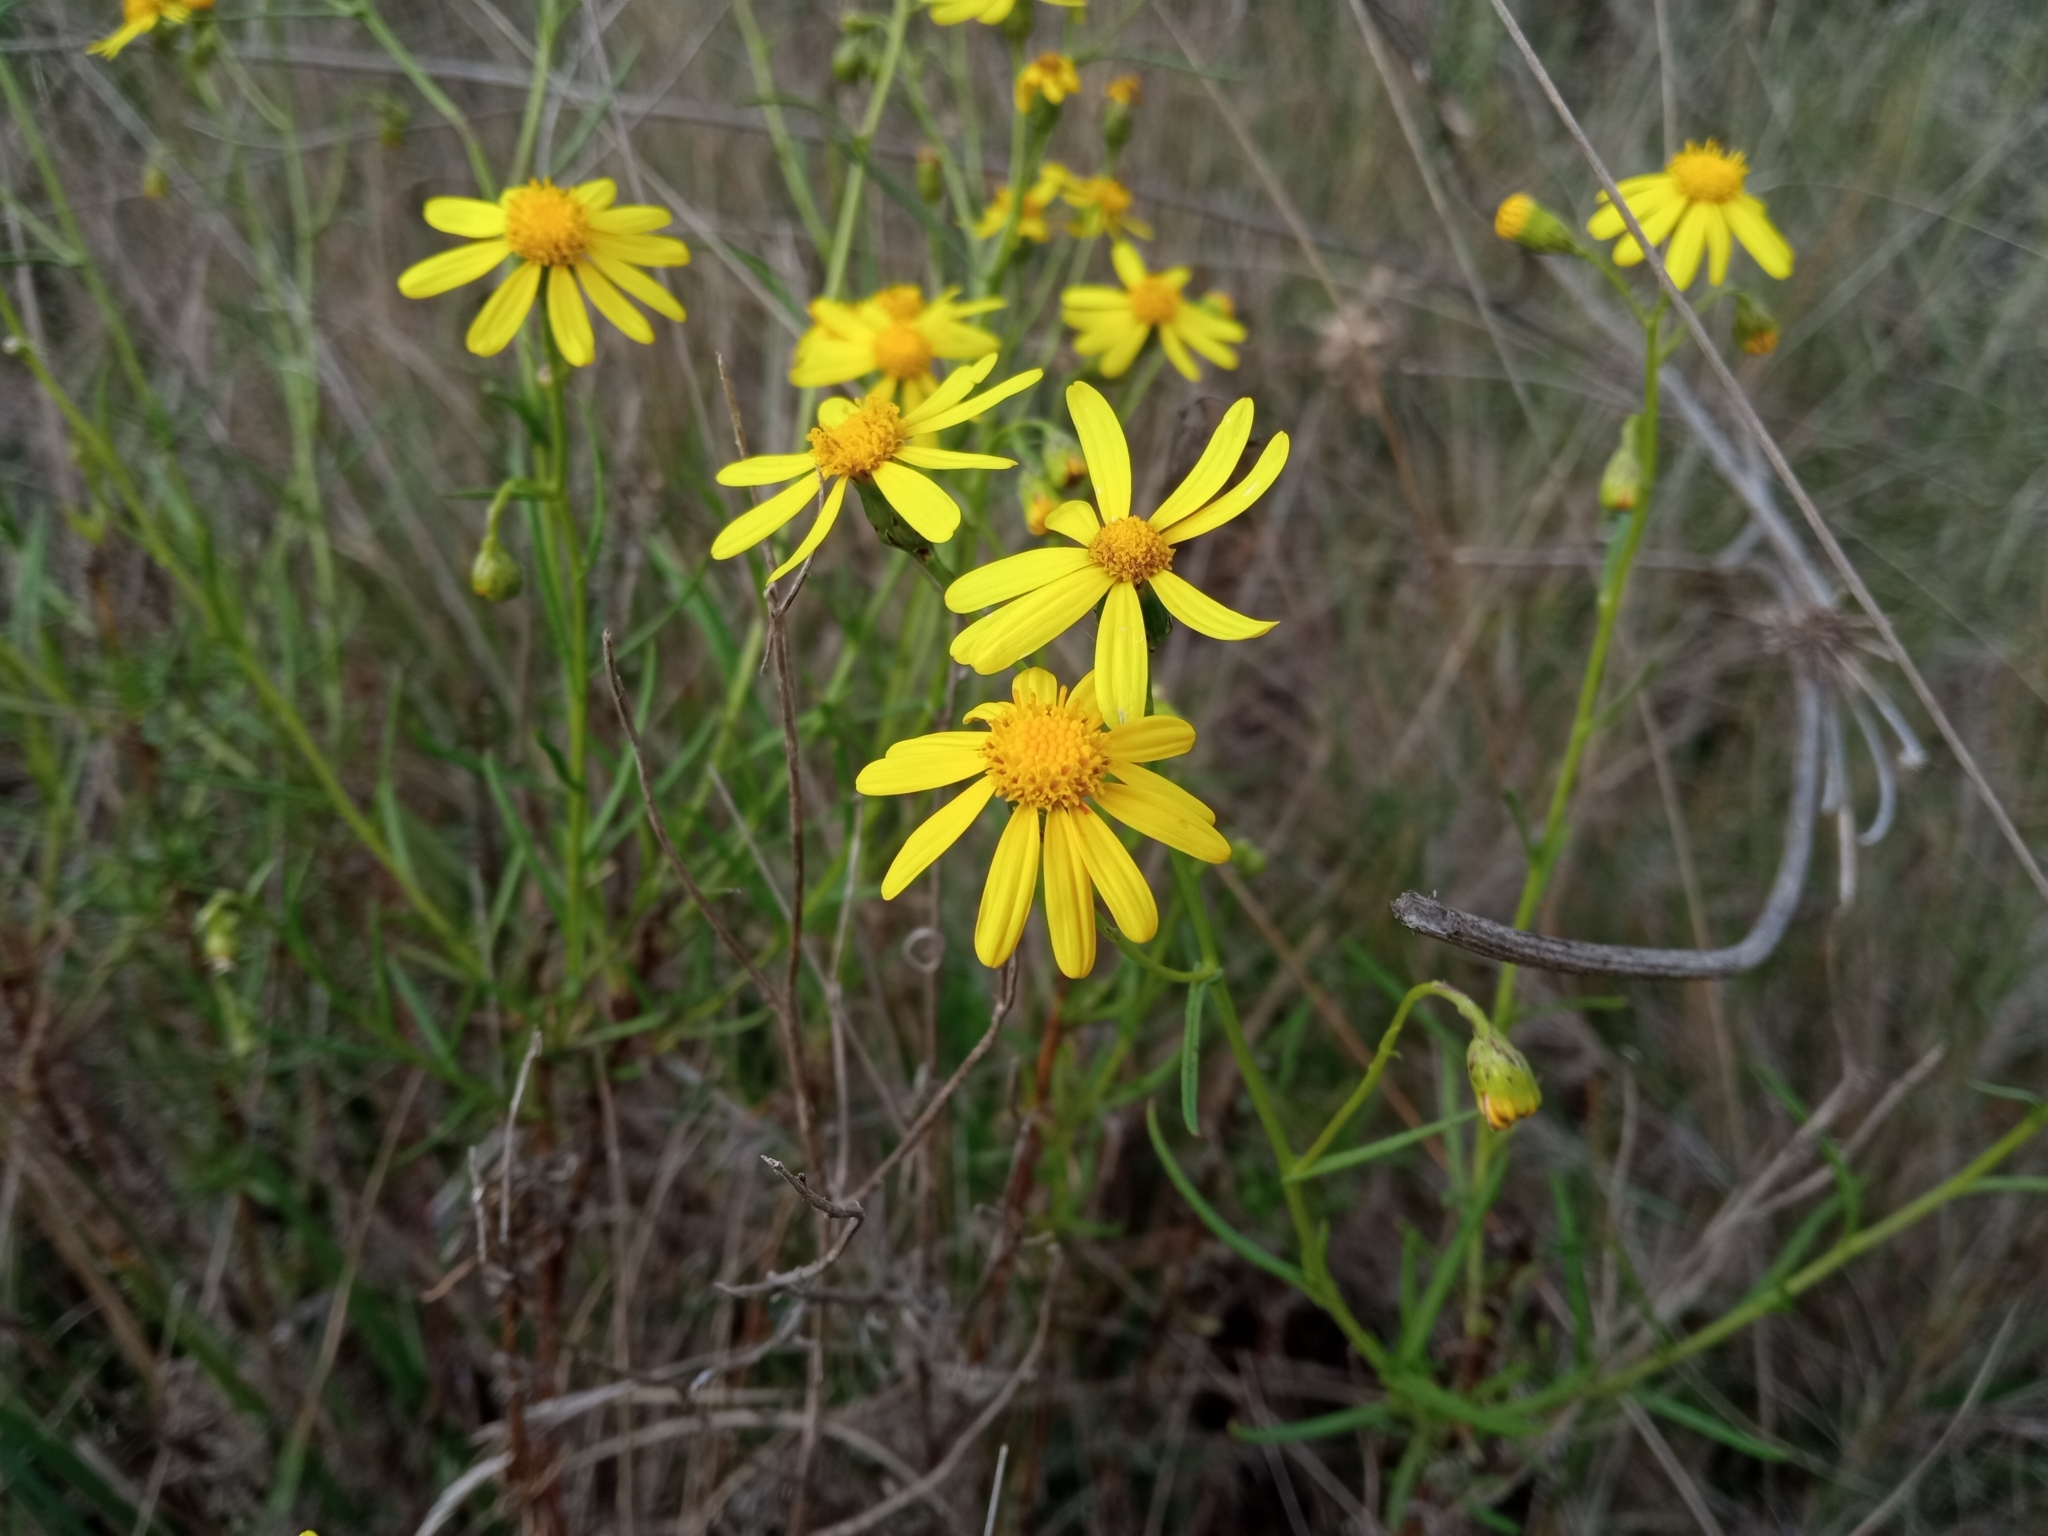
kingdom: Plantae
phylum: Tracheophyta
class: Magnoliopsida
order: Asterales
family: Asteraceae
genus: Senecio
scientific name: Senecio inaequidens
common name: Narrow-leaved ragwort
